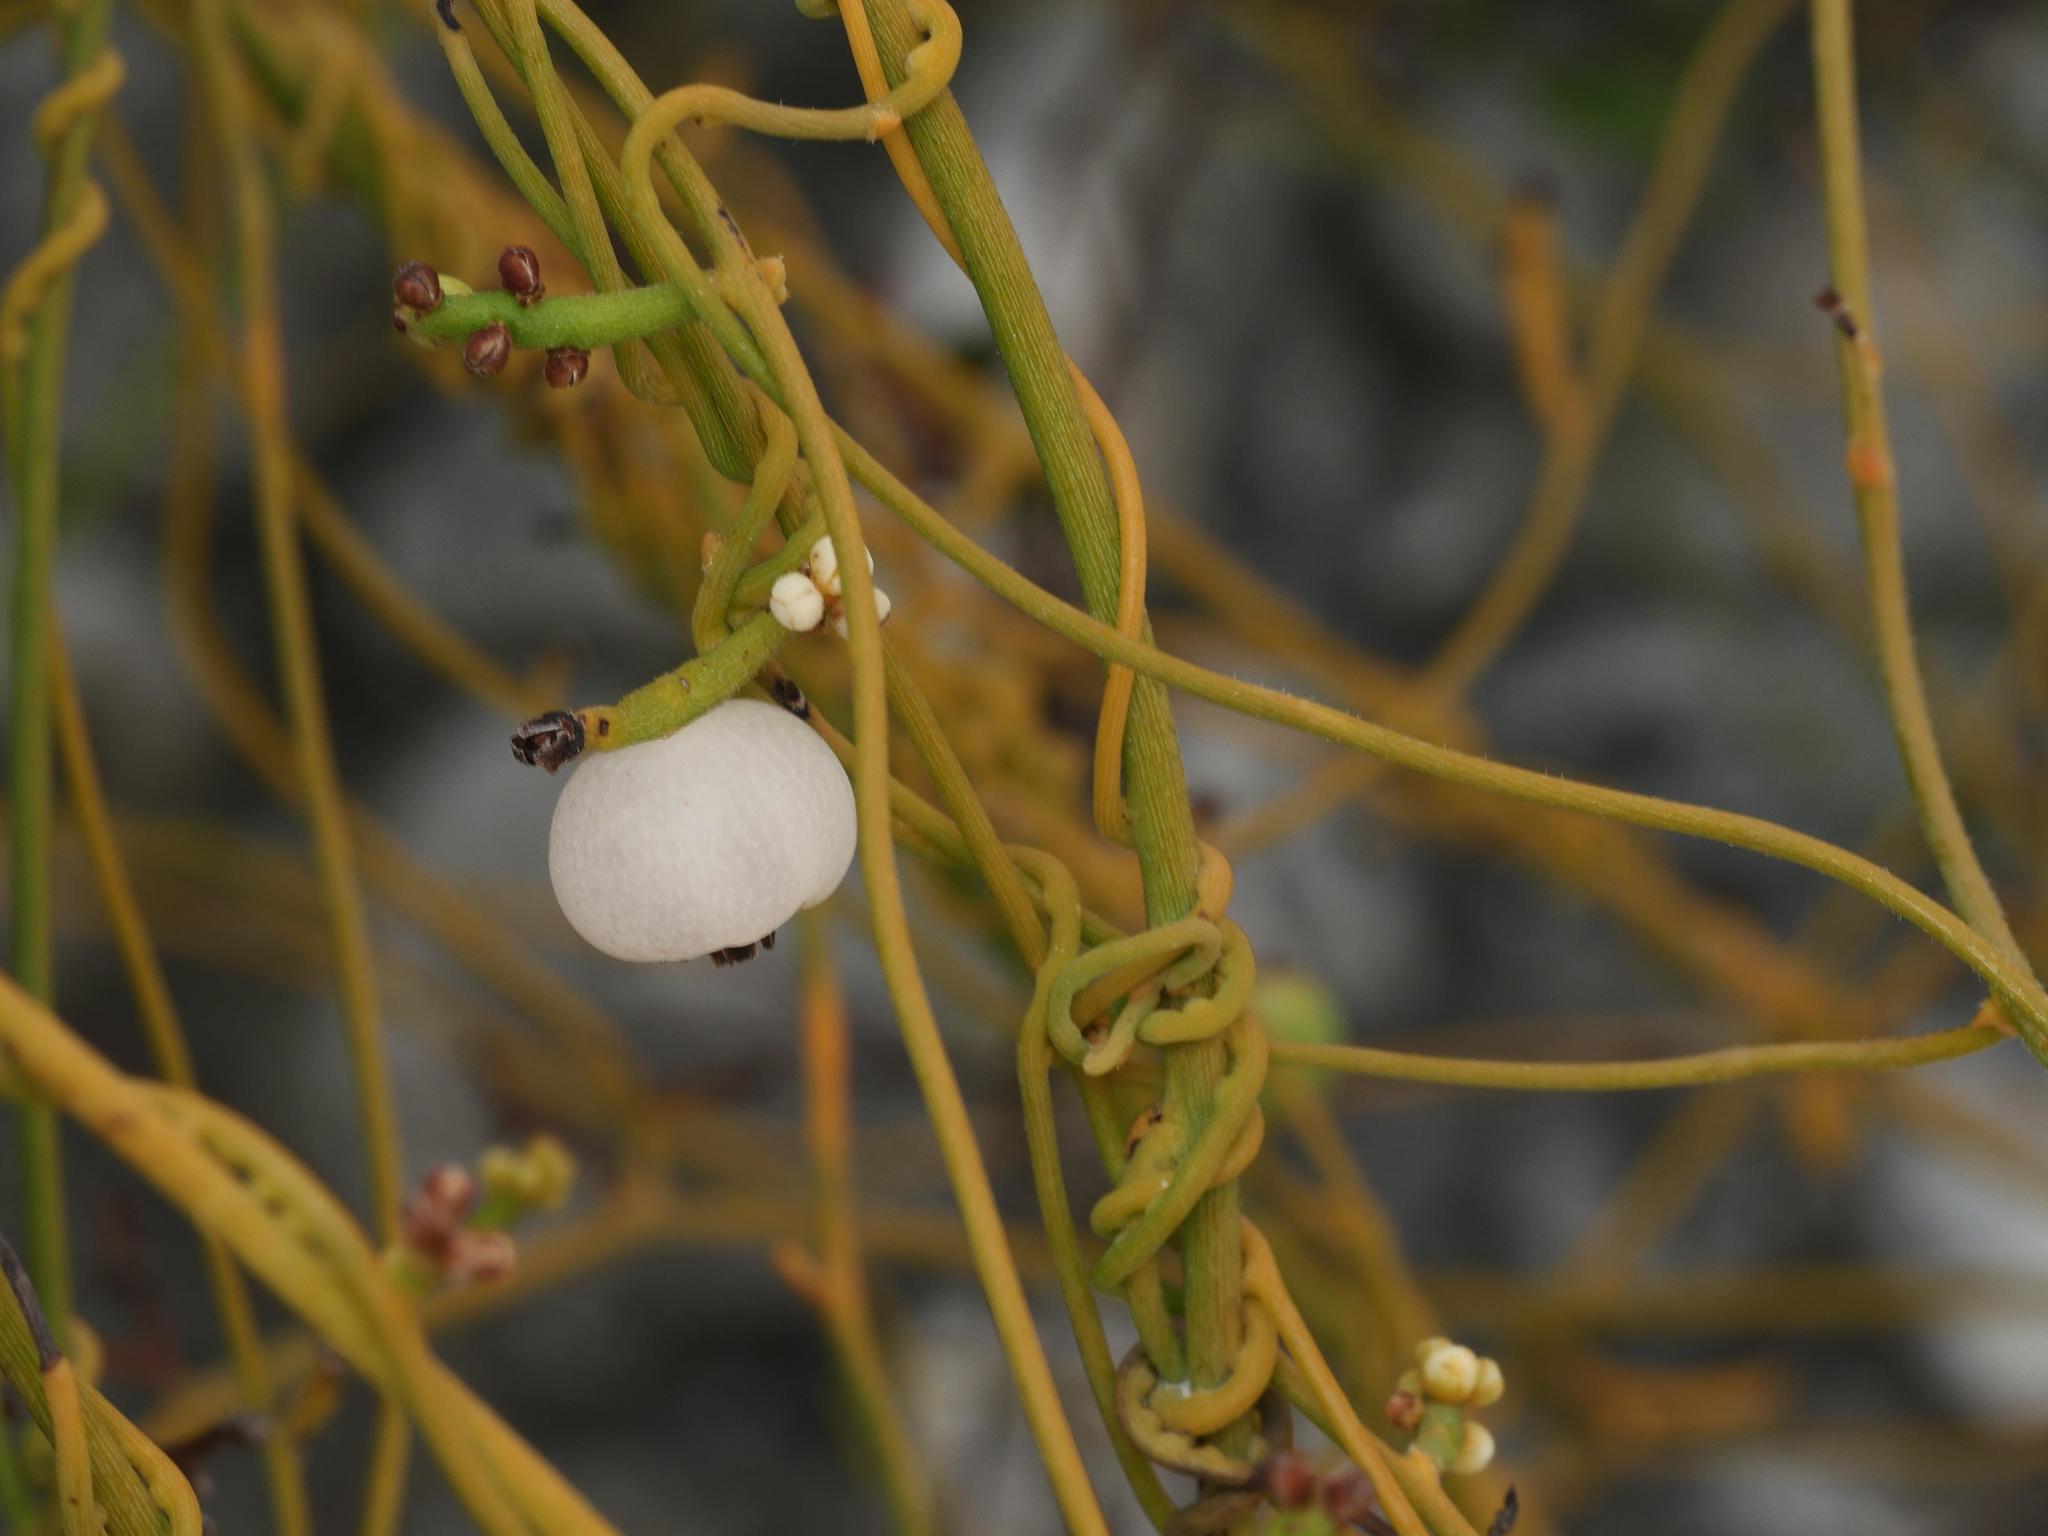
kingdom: Plantae
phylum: Tracheophyta
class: Magnoliopsida
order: Laurales
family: Lauraceae
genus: Cassytha
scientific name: Cassytha filiformis
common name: Dodder-laurel
